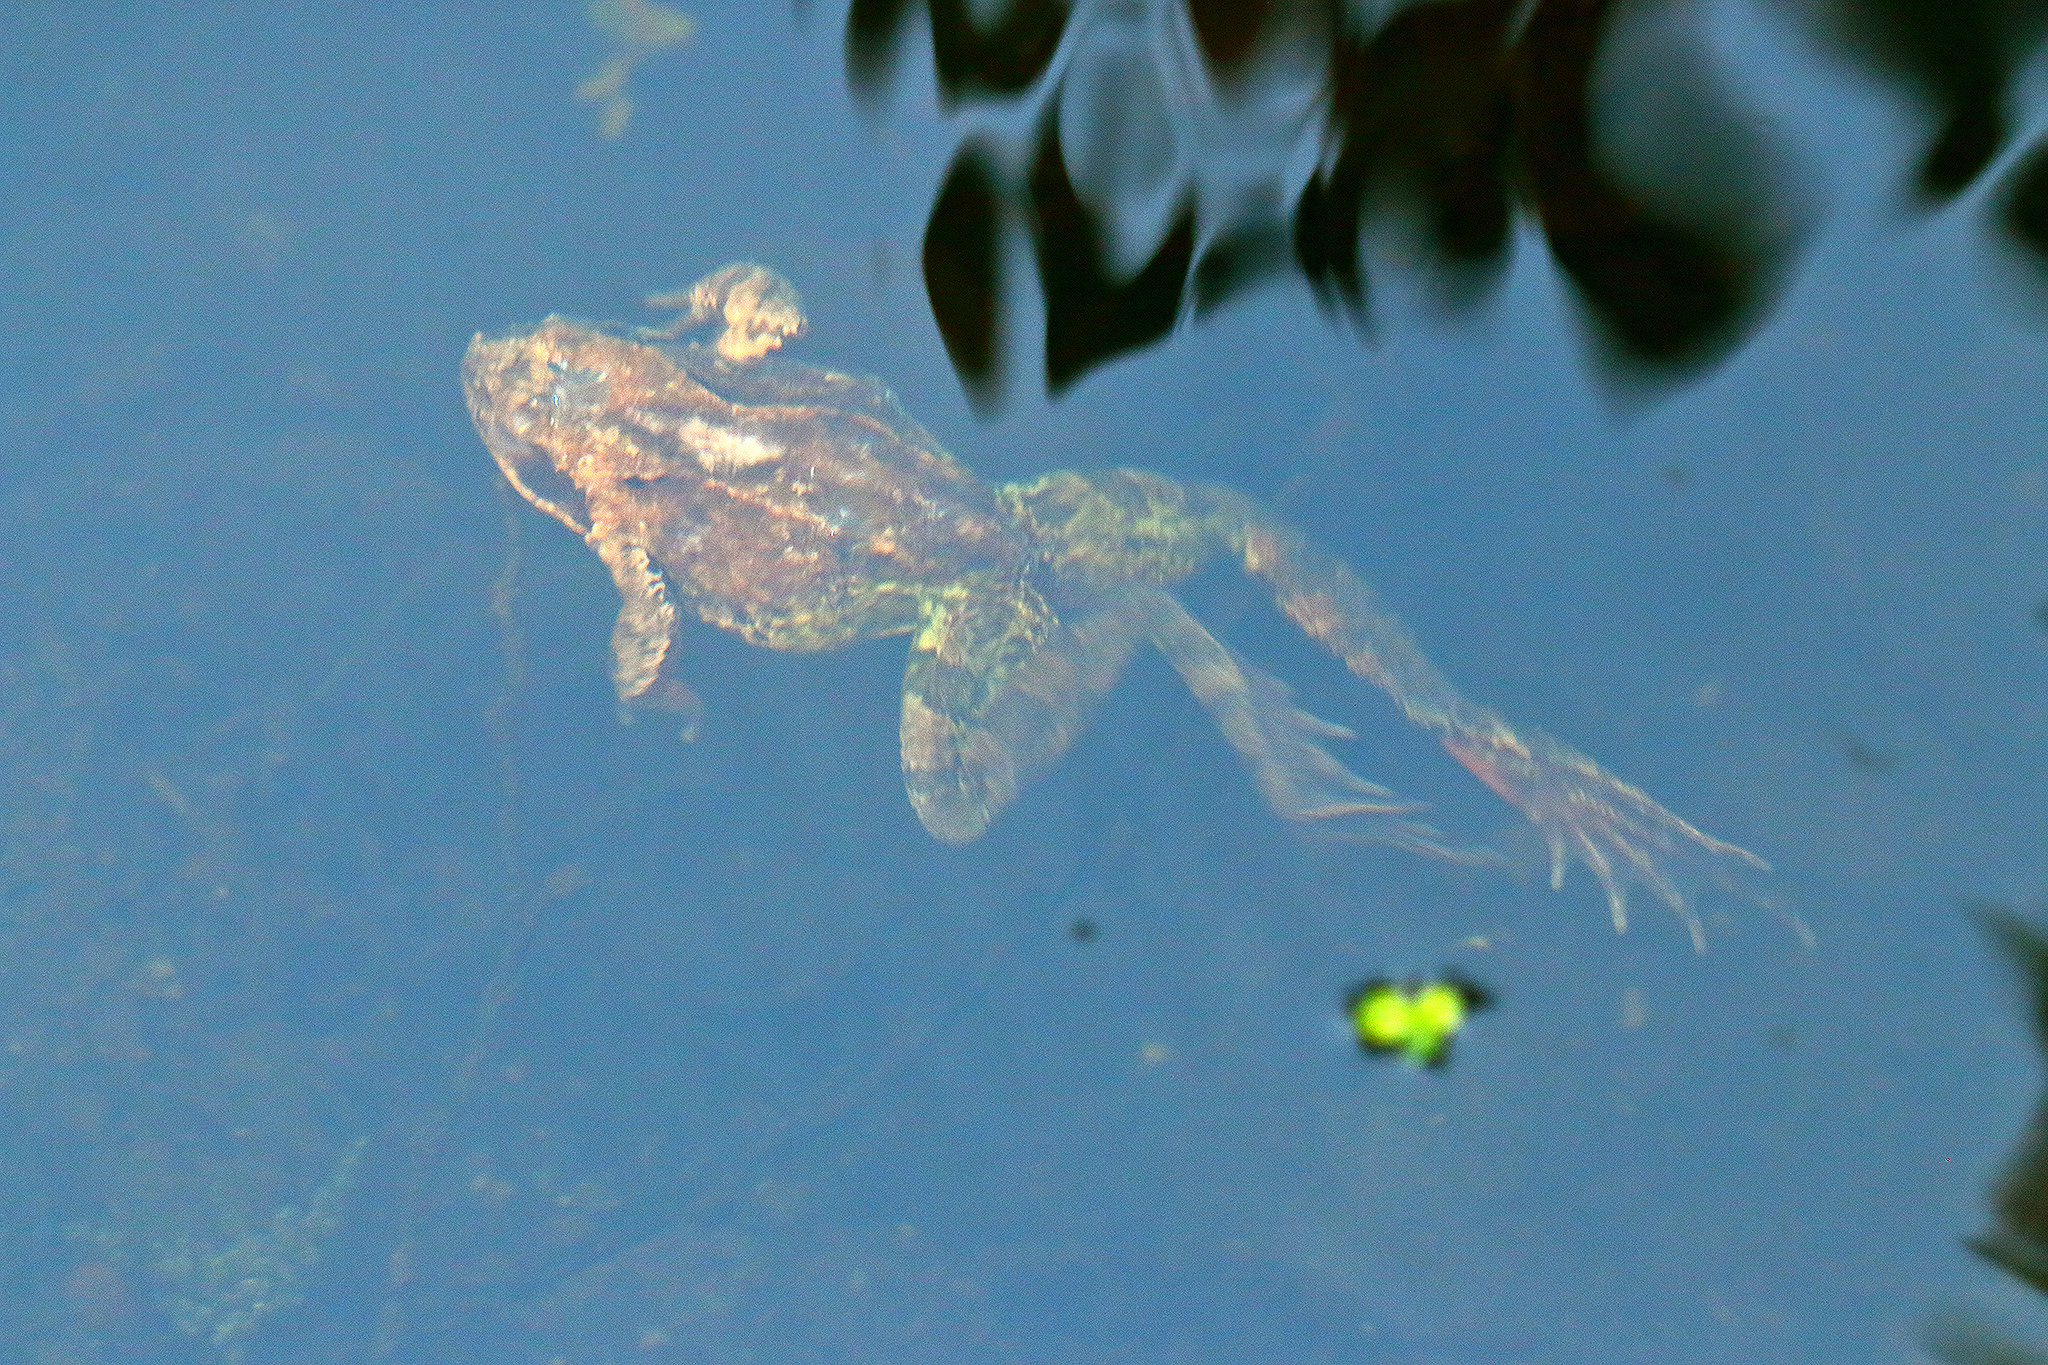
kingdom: Animalia
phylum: Chordata
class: Amphibia
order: Anura
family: Ranidae
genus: Rana
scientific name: Rana temporaria
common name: Common frog
